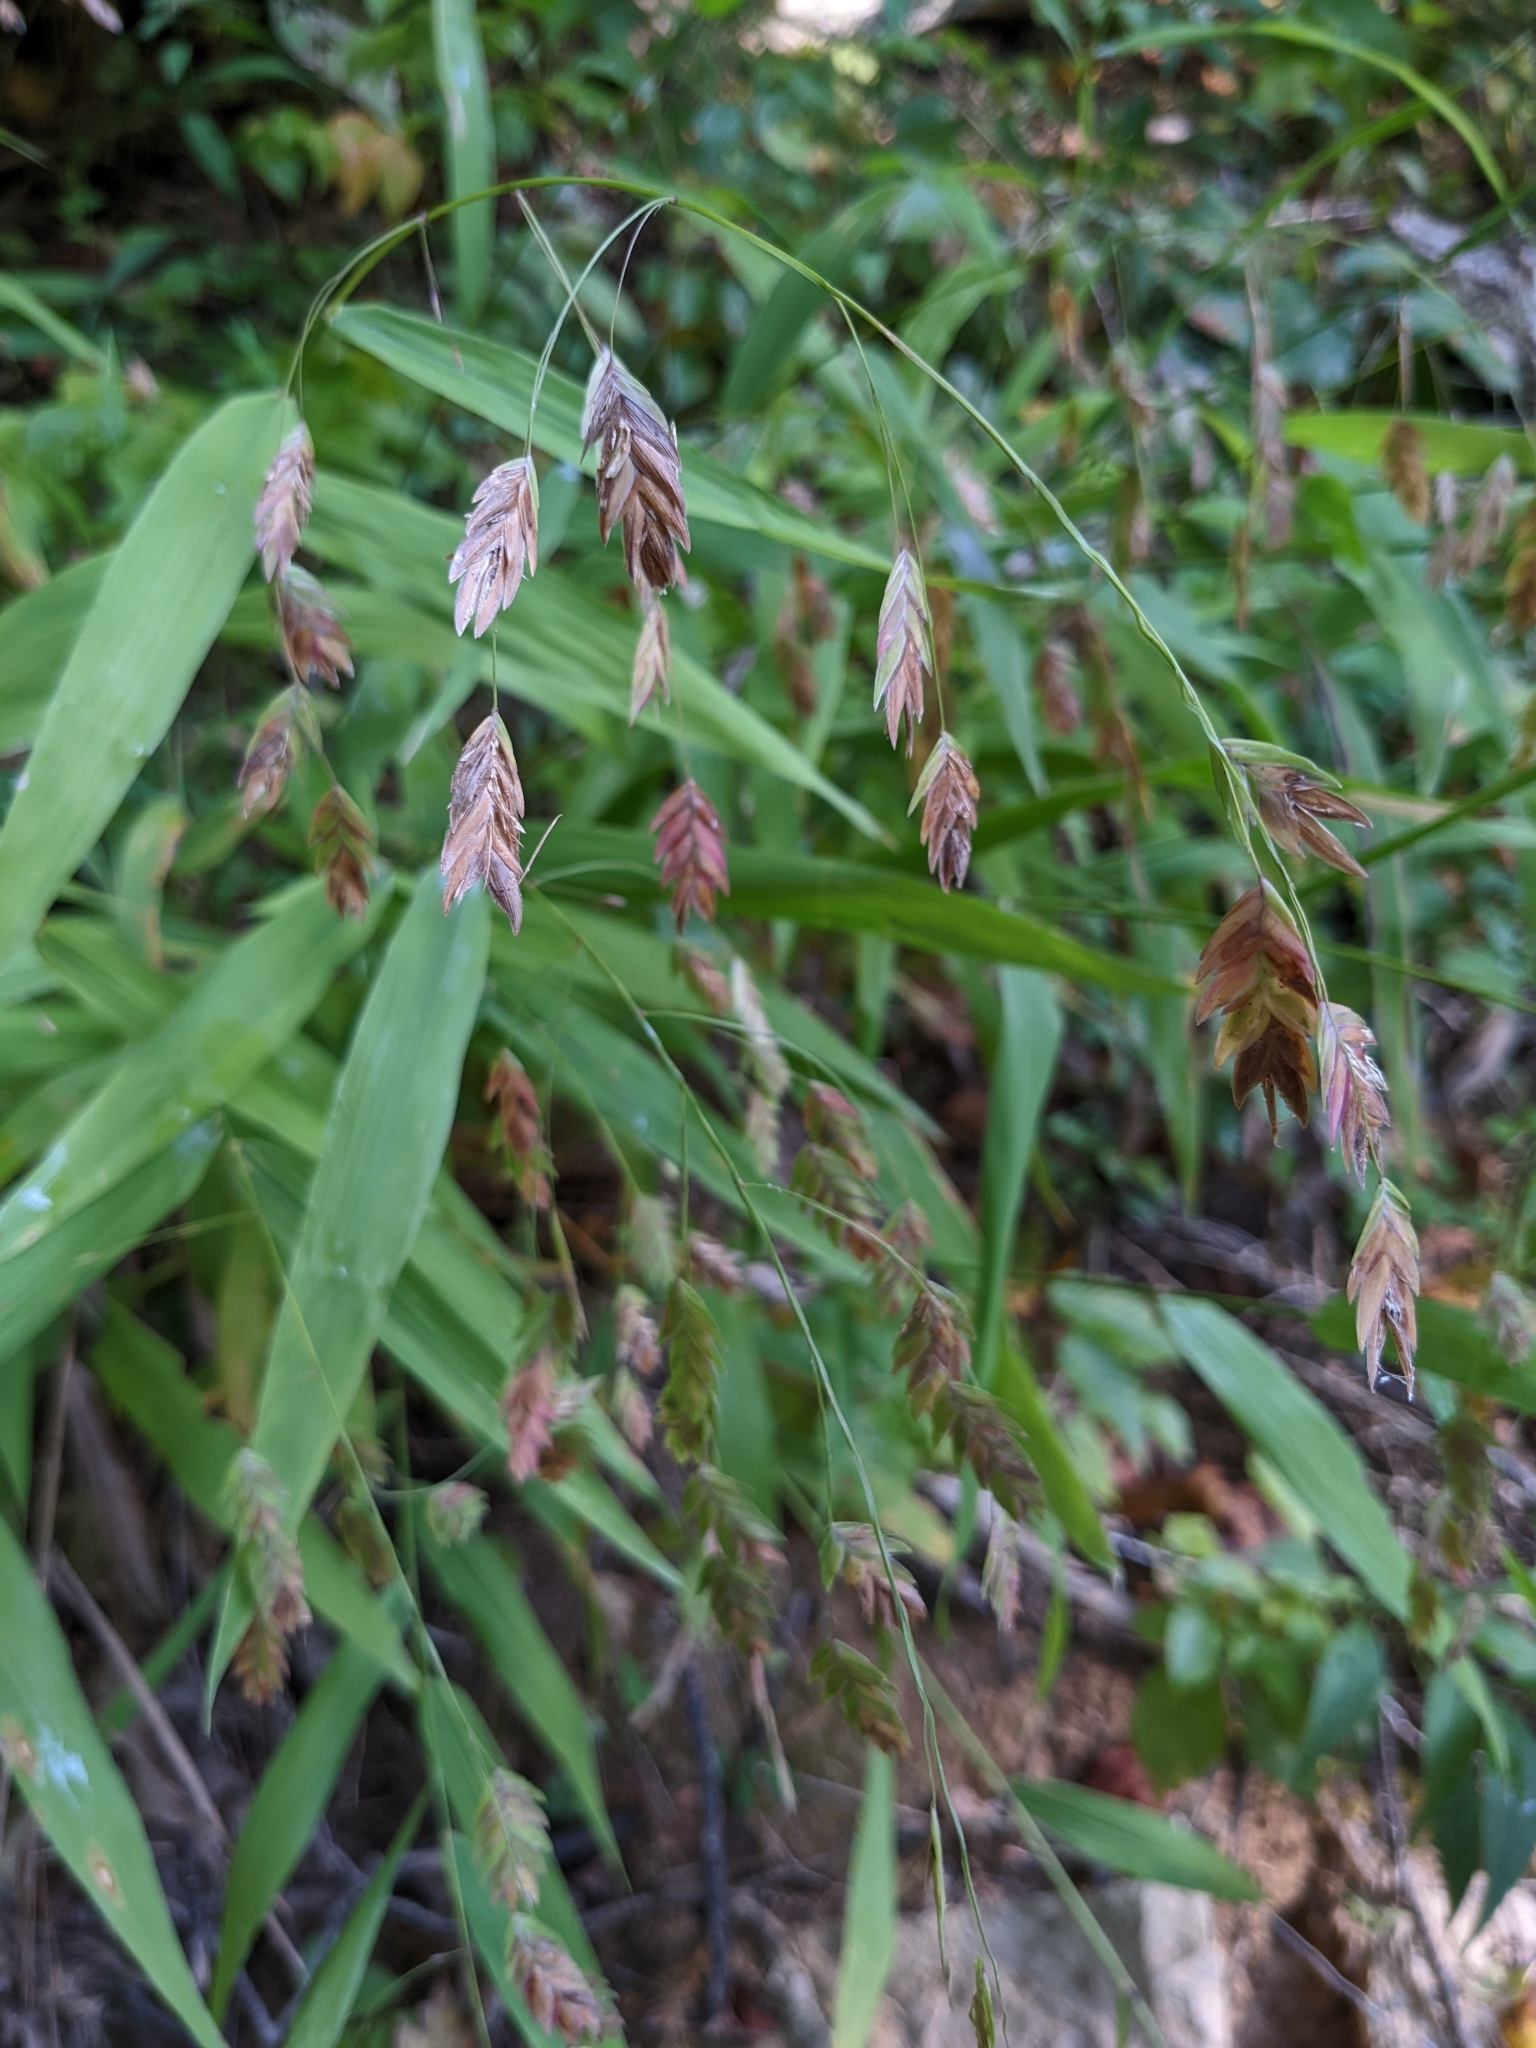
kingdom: Plantae
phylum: Tracheophyta
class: Liliopsida
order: Poales
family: Poaceae
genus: Chasmanthium
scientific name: Chasmanthium latifolium
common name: Broad-leaved chasmanthium
